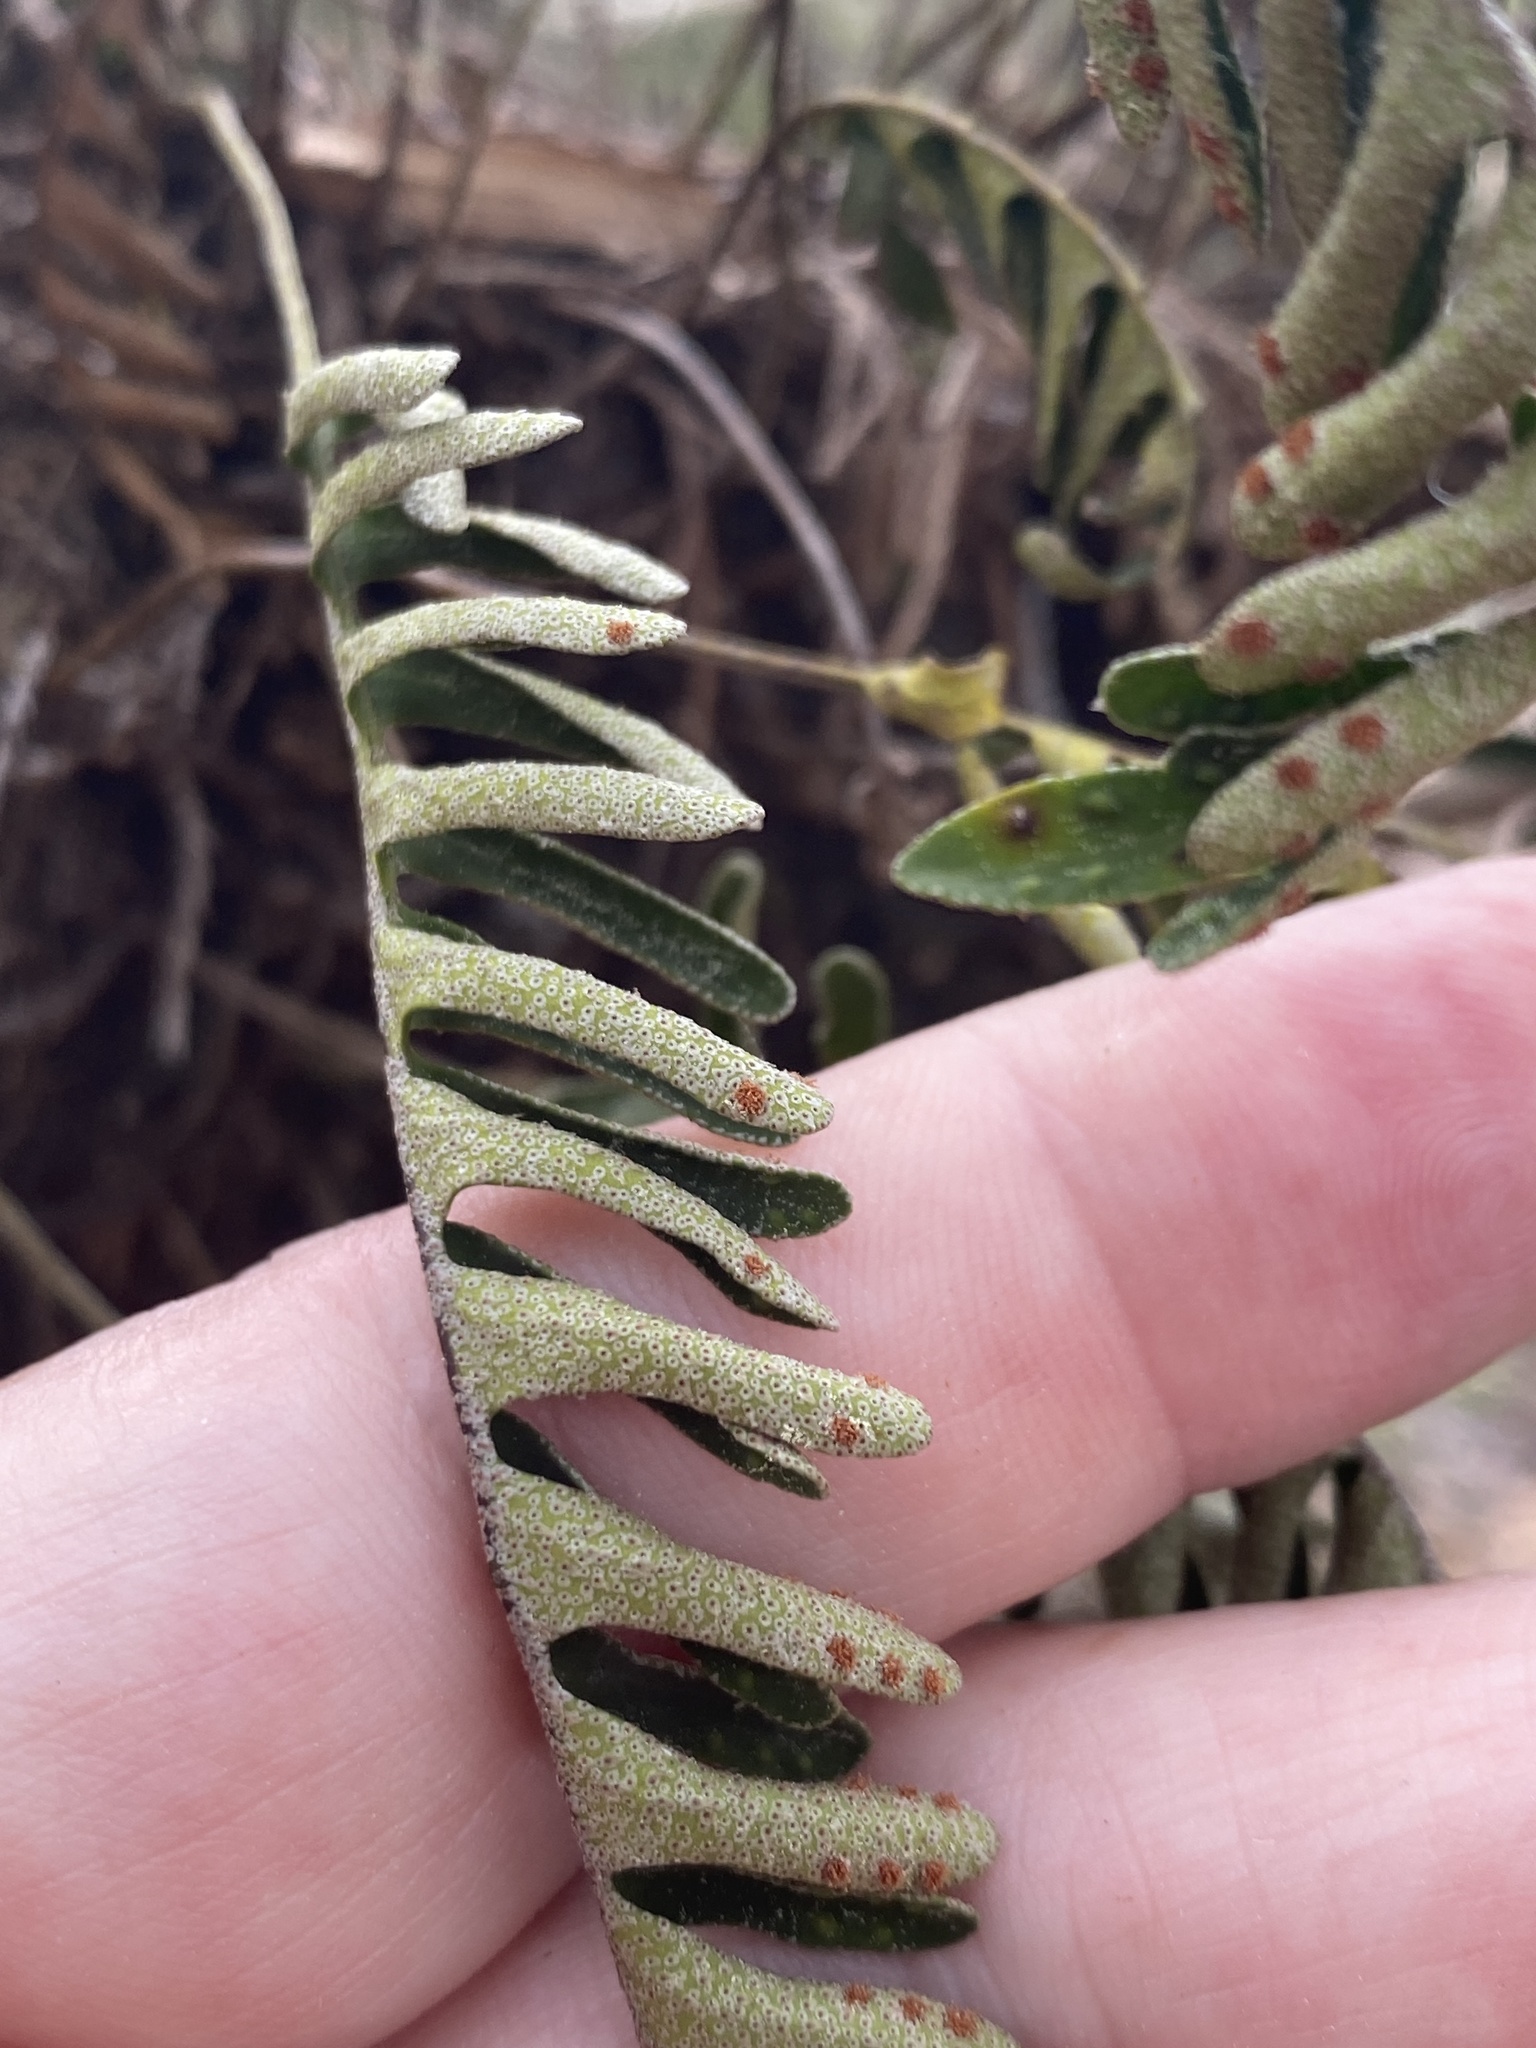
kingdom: Plantae
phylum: Tracheophyta
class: Polypodiopsida
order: Polypodiales
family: Polypodiaceae
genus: Pleopeltis
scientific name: Pleopeltis michauxiana
